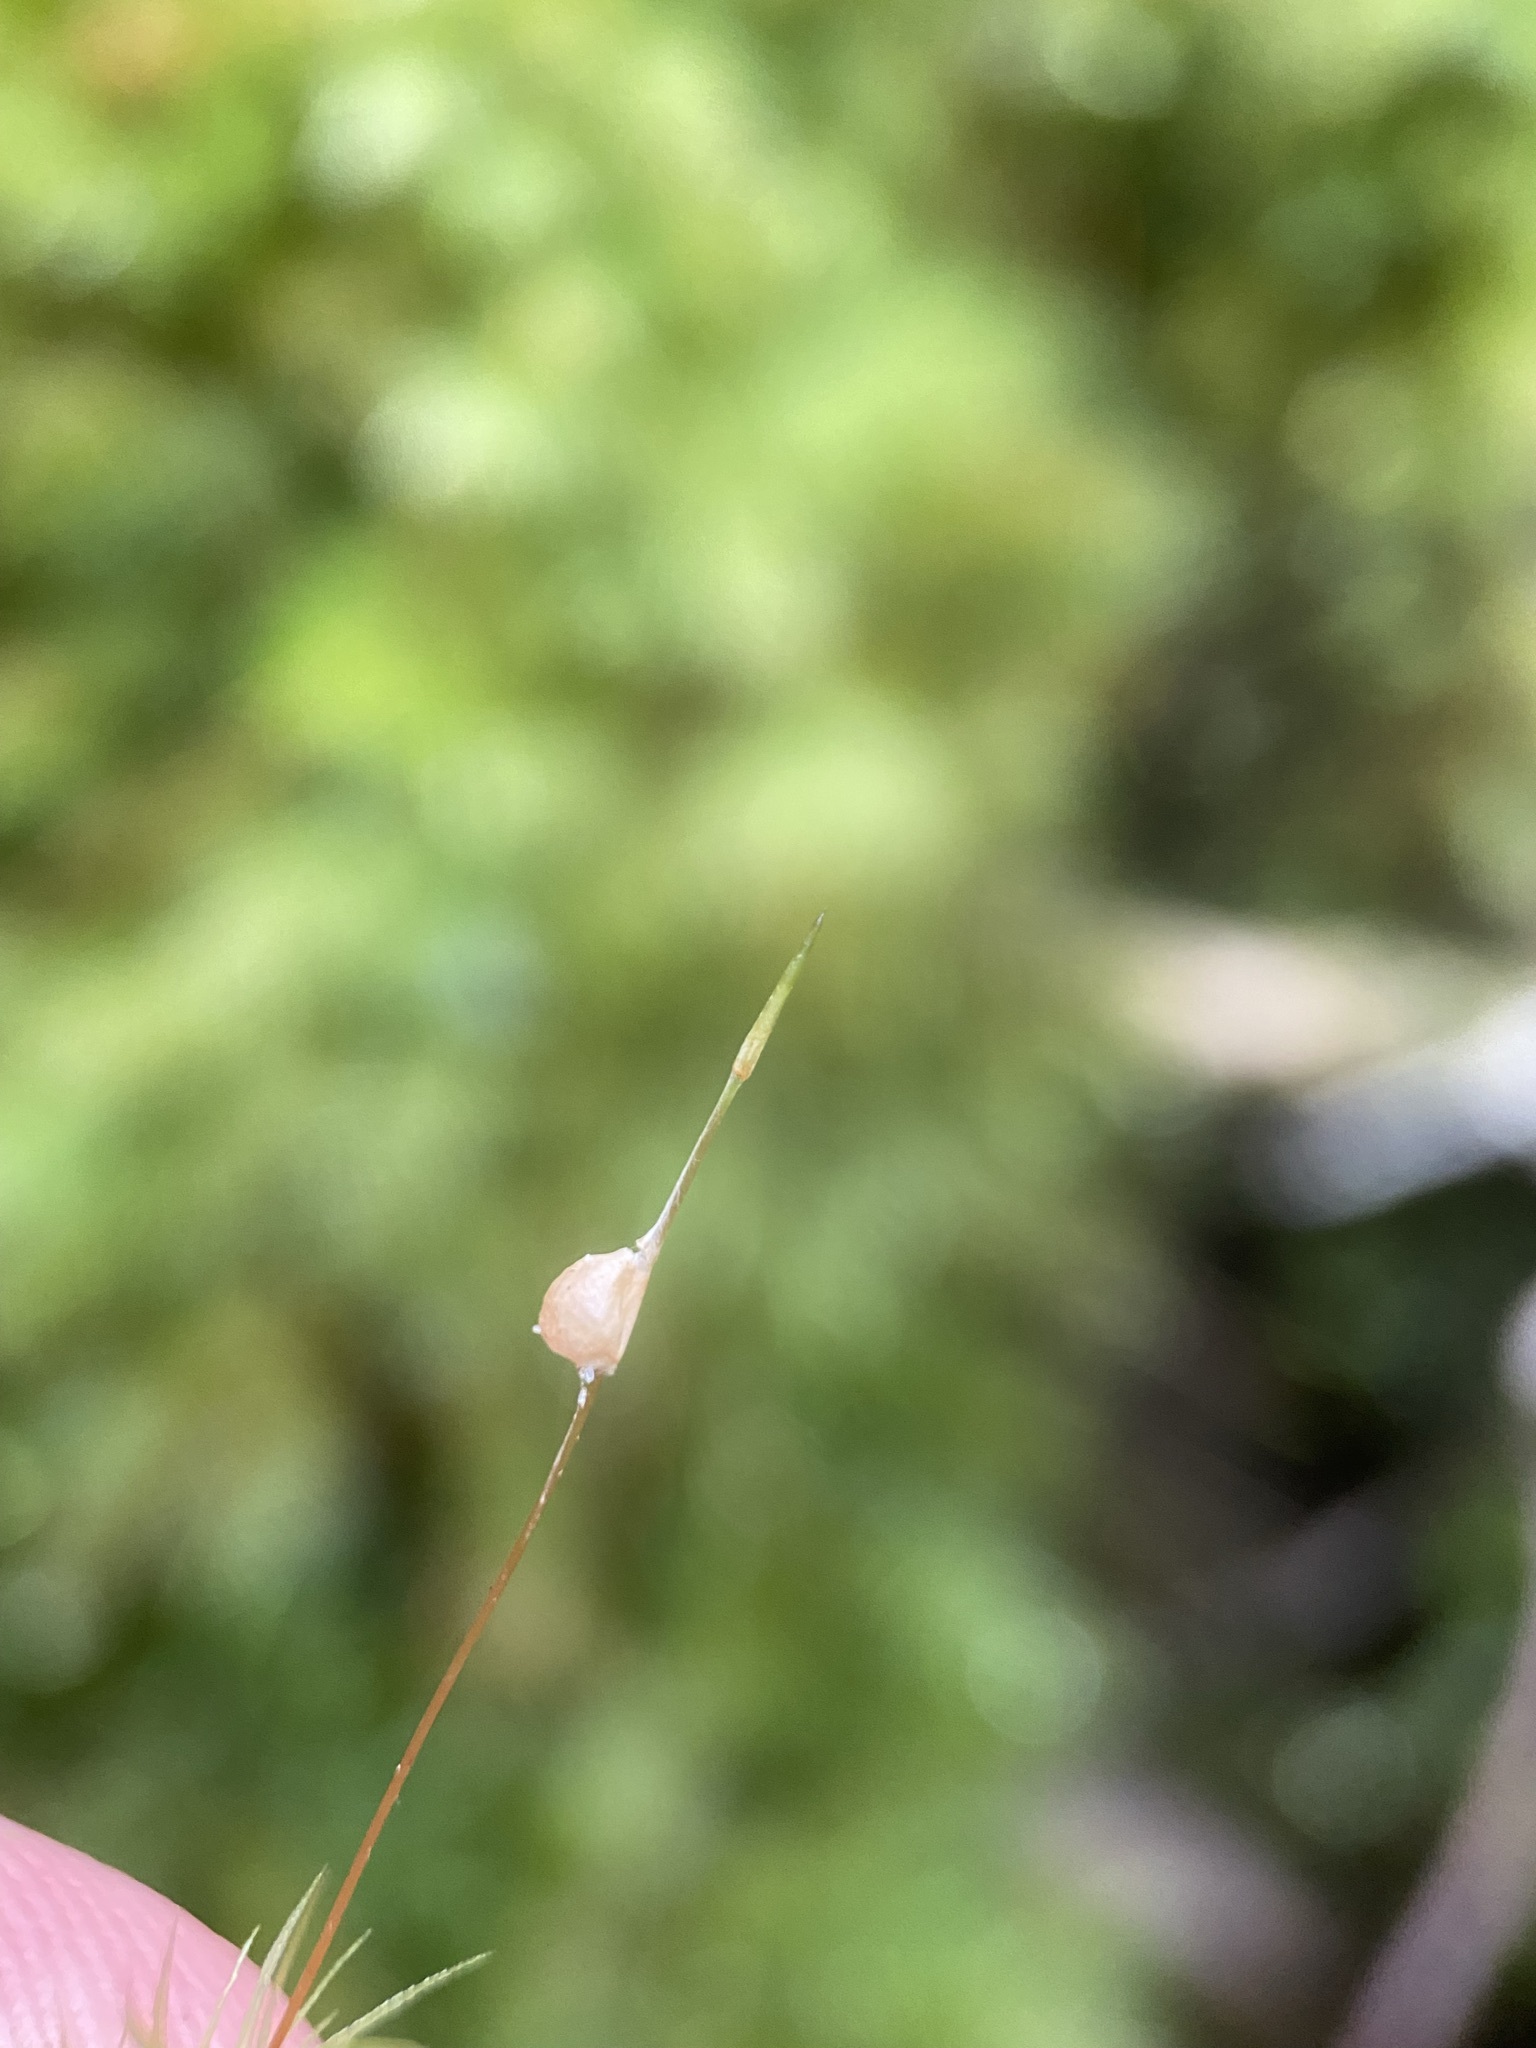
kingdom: Plantae
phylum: Bryophyta
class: Bryopsida
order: Rhizogoniales
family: Calomniaceae
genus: Pyrrhobryum
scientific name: Pyrrhobryum spiniforme
